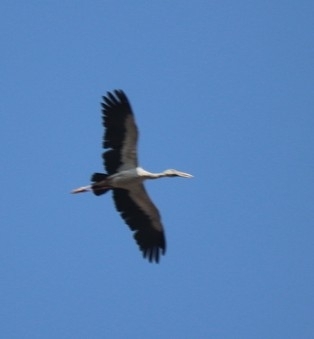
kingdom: Animalia
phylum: Chordata
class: Aves
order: Ciconiiformes
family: Ciconiidae
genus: Anastomus
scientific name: Anastomus oscitans
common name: Asian openbill
